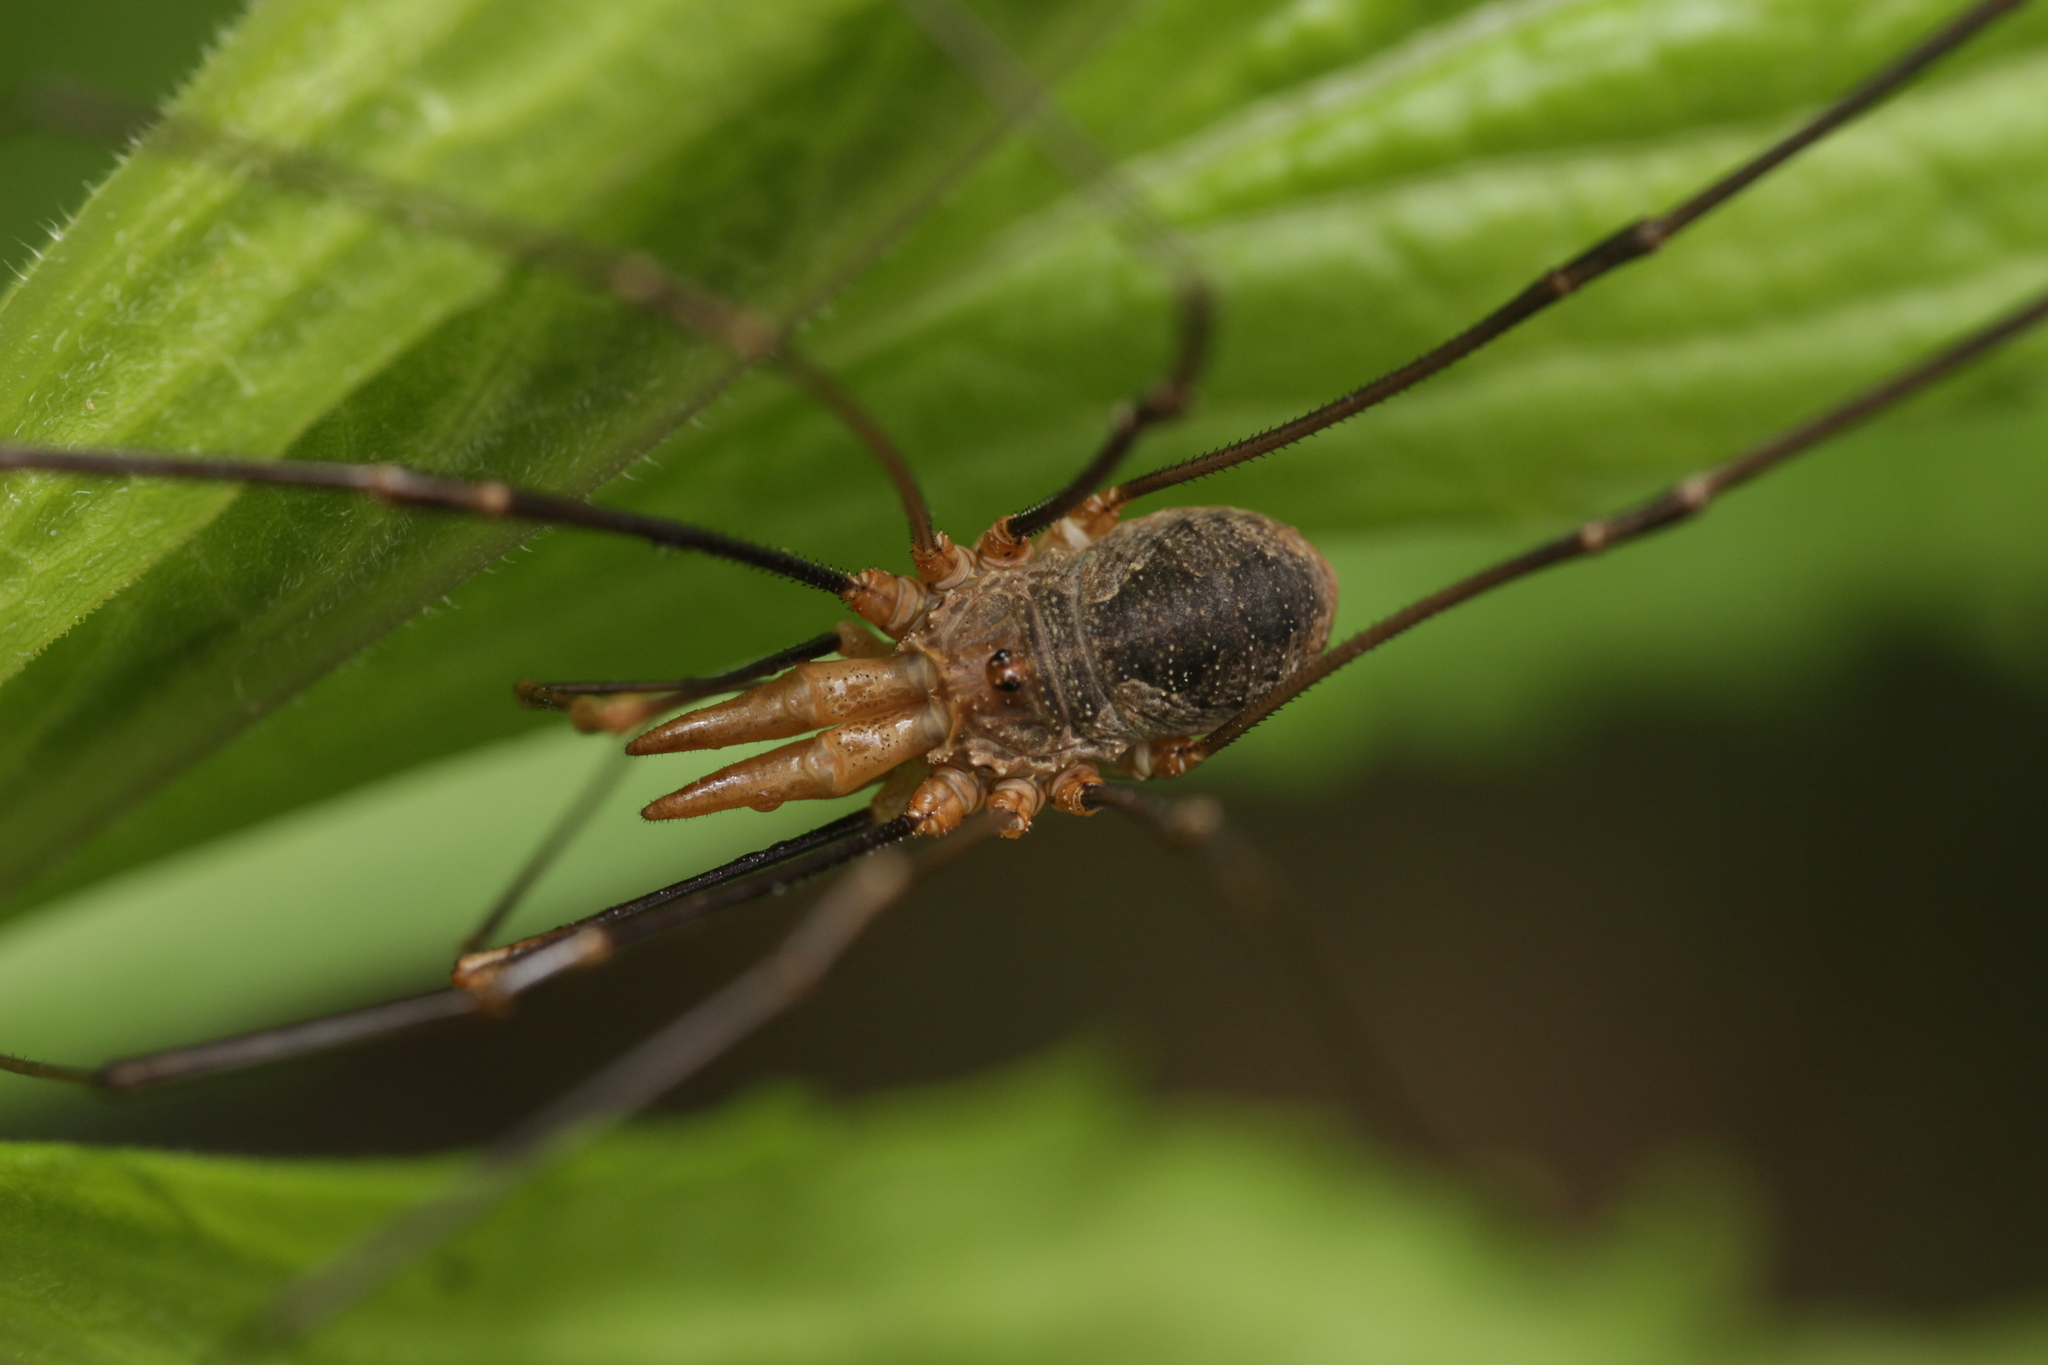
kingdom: Animalia
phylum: Arthropoda
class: Arachnida
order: Opiliones
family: Phalangiidae
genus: Phalangium
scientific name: Phalangium opilio
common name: Daddy longleg
